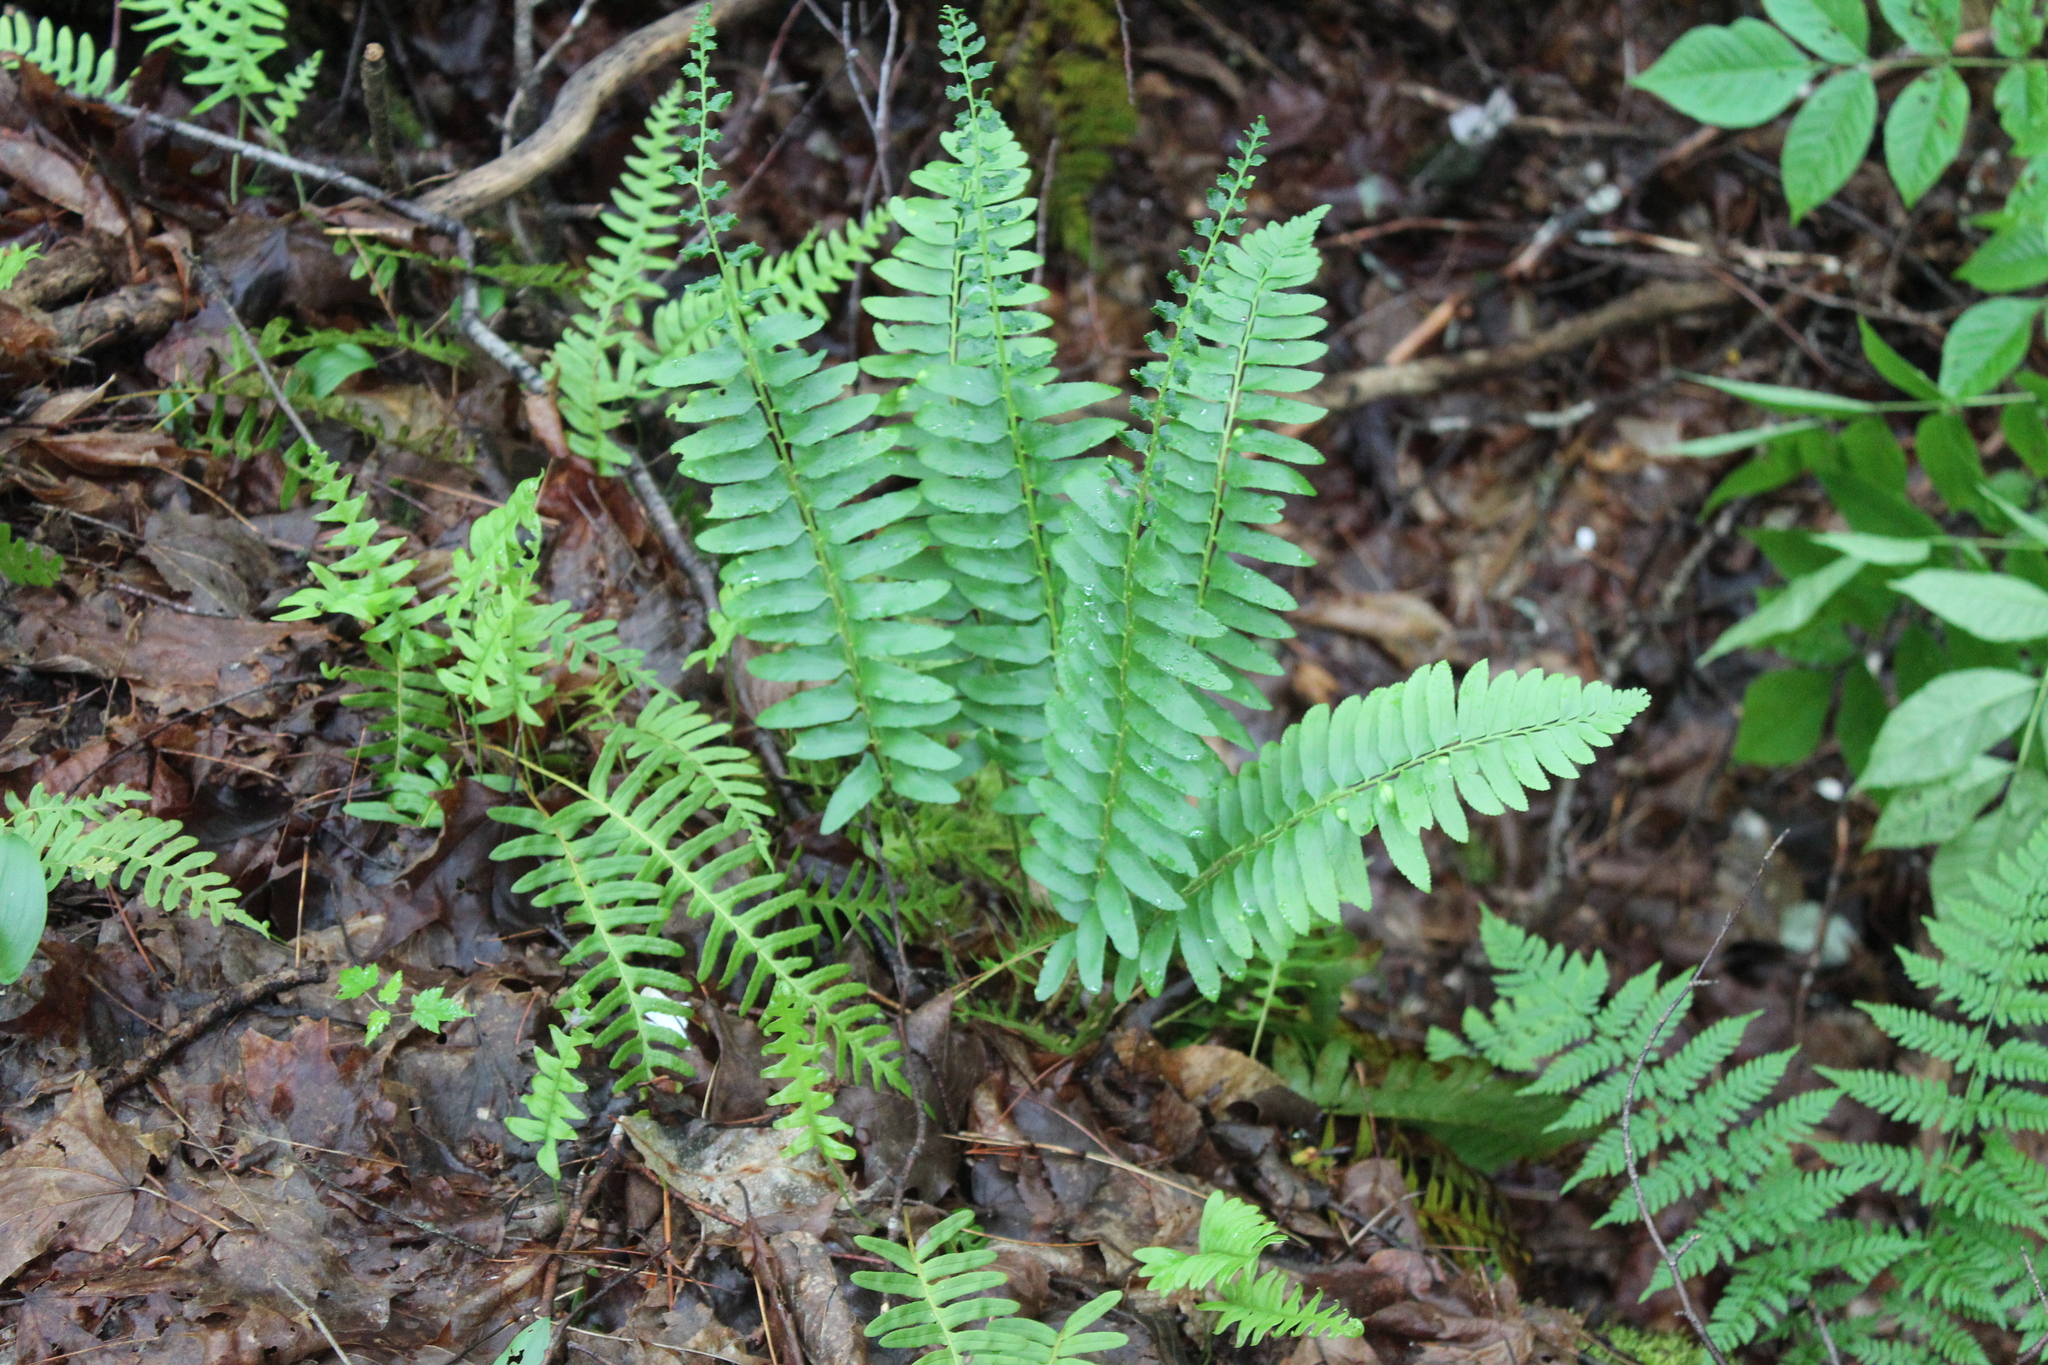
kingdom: Plantae
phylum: Tracheophyta
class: Polypodiopsida
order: Polypodiales
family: Dryopteridaceae
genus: Polystichum
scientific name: Polystichum acrostichoides
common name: Christmas fern
